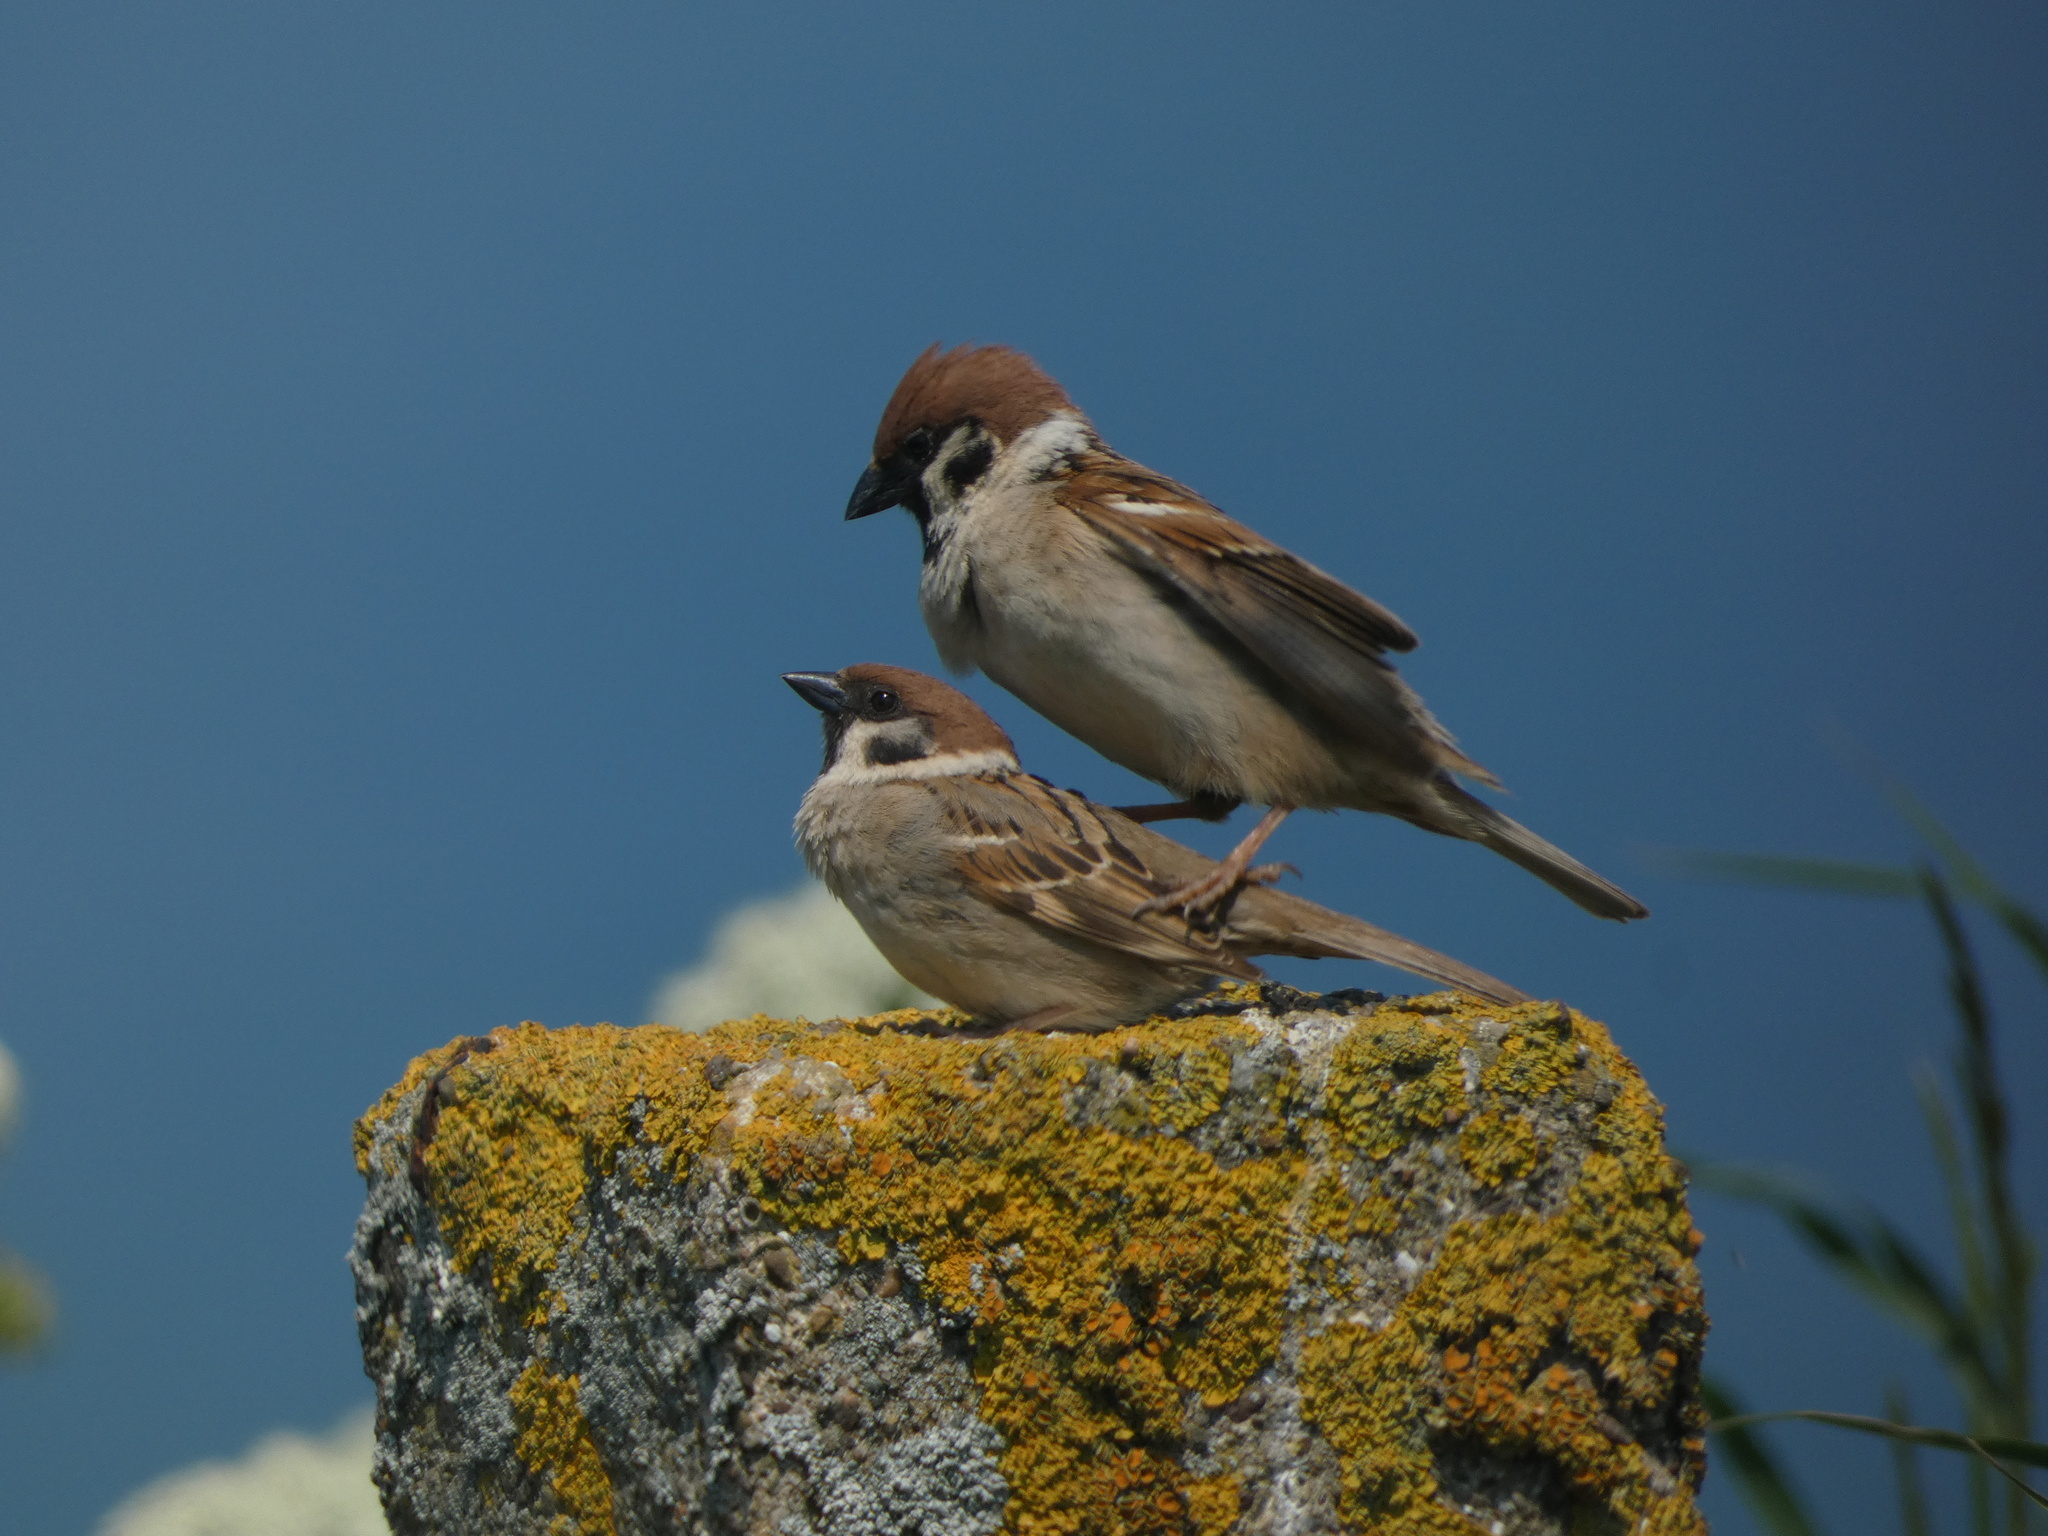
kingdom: Animalia
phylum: Chordata
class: Aves
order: Passeriformes
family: Passeridae
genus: Passer
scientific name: Passer montanus
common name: Eurasian tree sparrow
